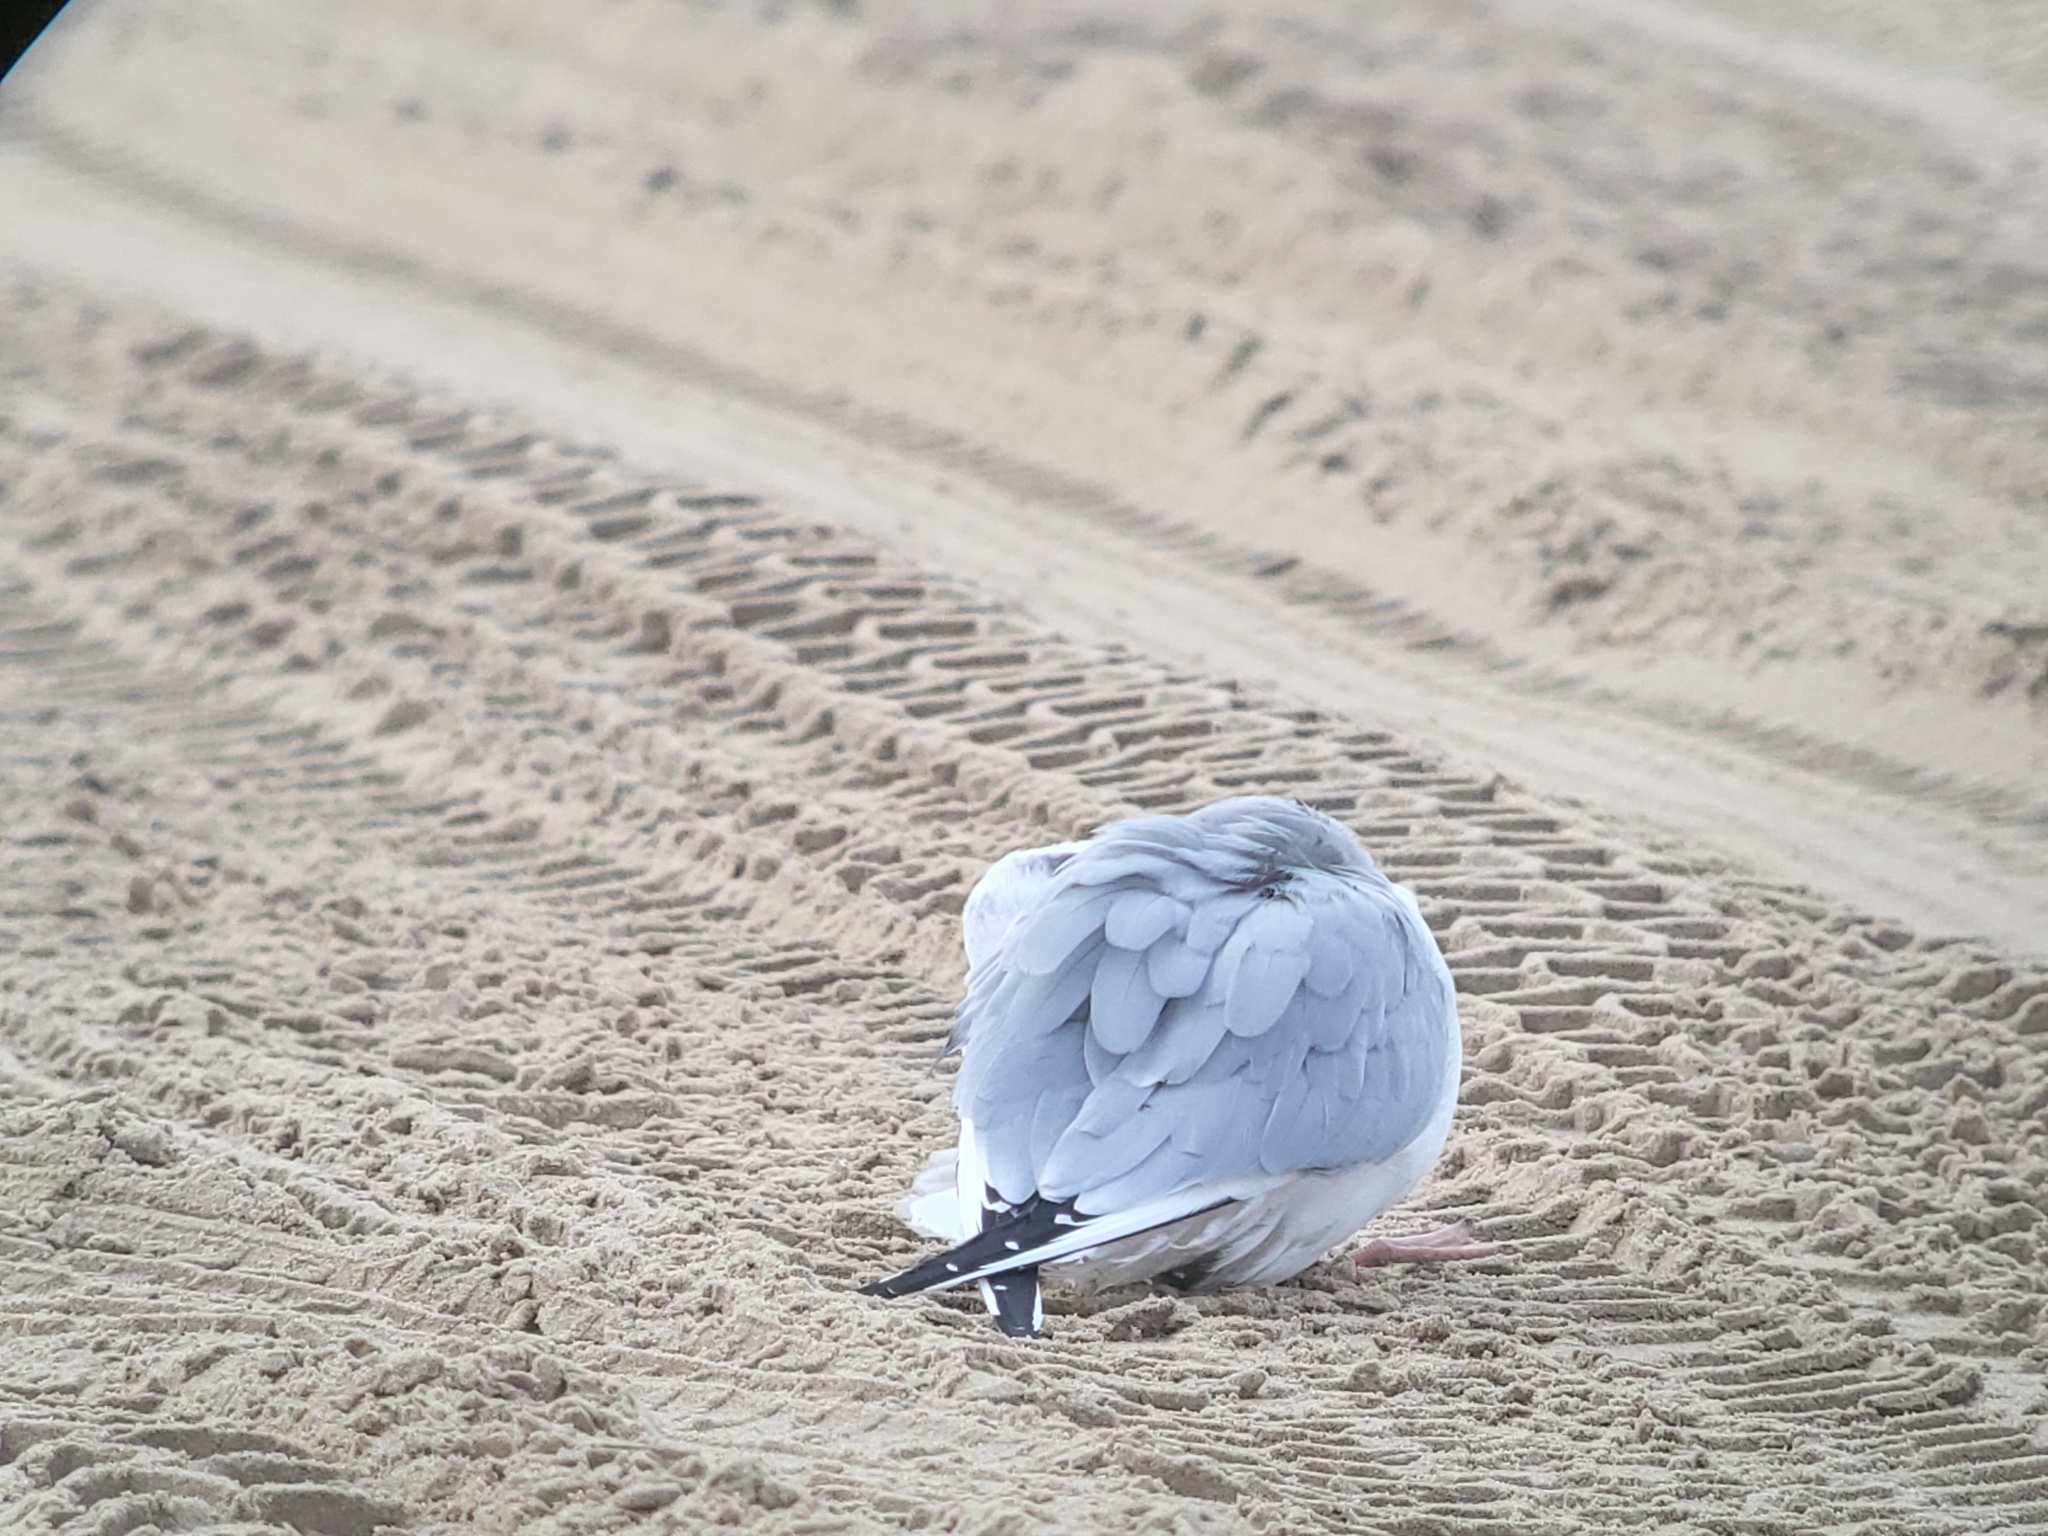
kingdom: Animalia
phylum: Chordata
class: Aves
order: Charadriiformes
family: Laridae
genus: Chroicocephalus
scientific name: Chroicocephalus philadelphia
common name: Bonaparte's gull
